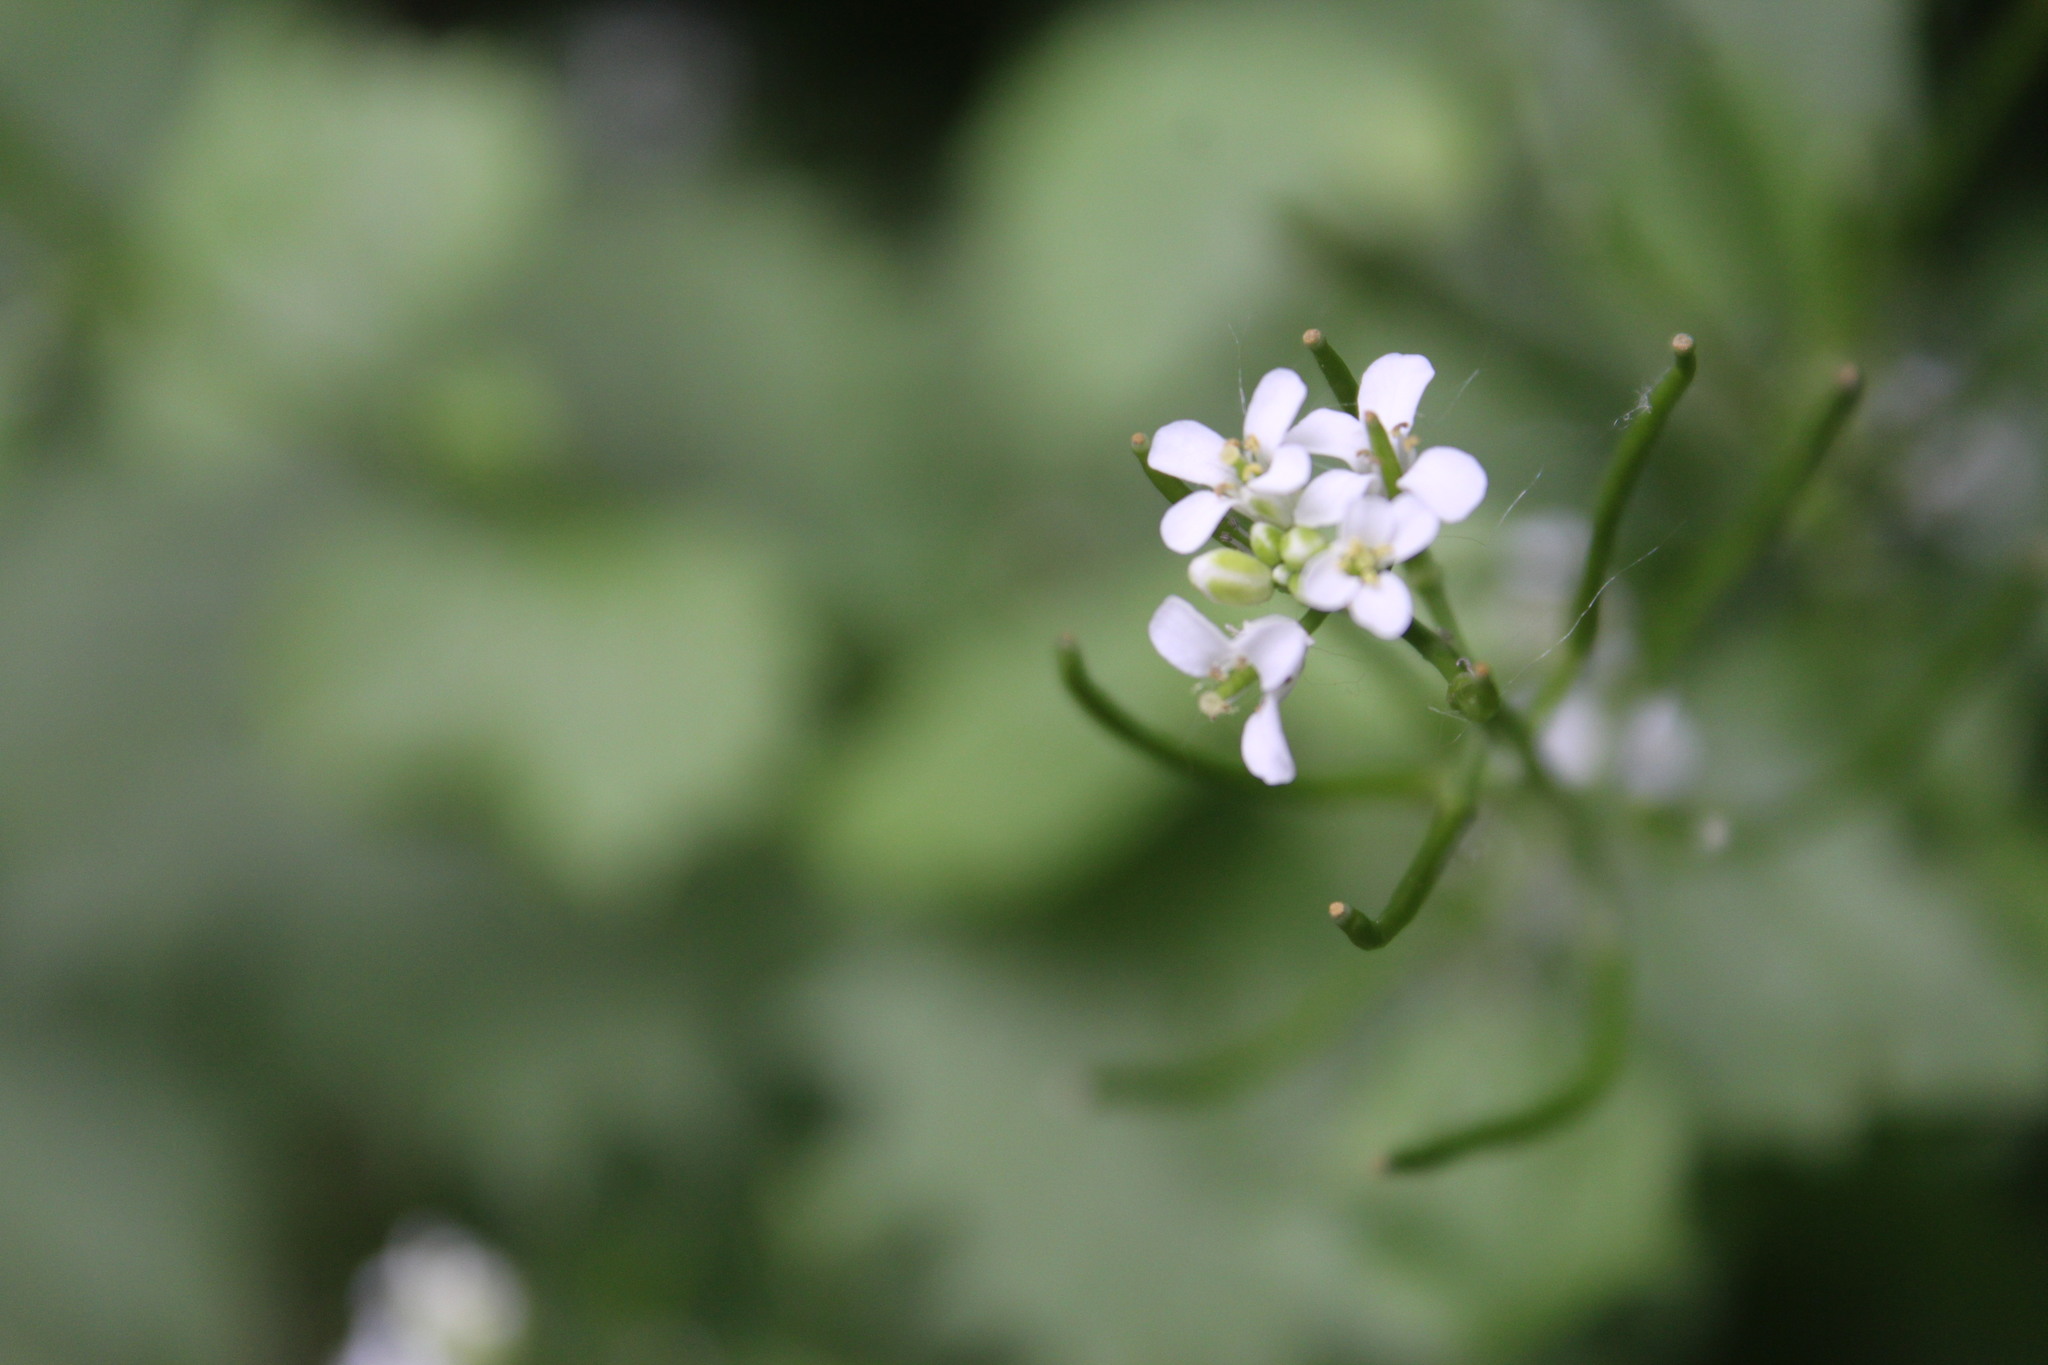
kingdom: Plantae
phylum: Tracheophyta
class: Magnoliopsida
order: Brassicales
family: Brassicaceae
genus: Alliaria
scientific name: Alliaria petiolata
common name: Garlic mustard
